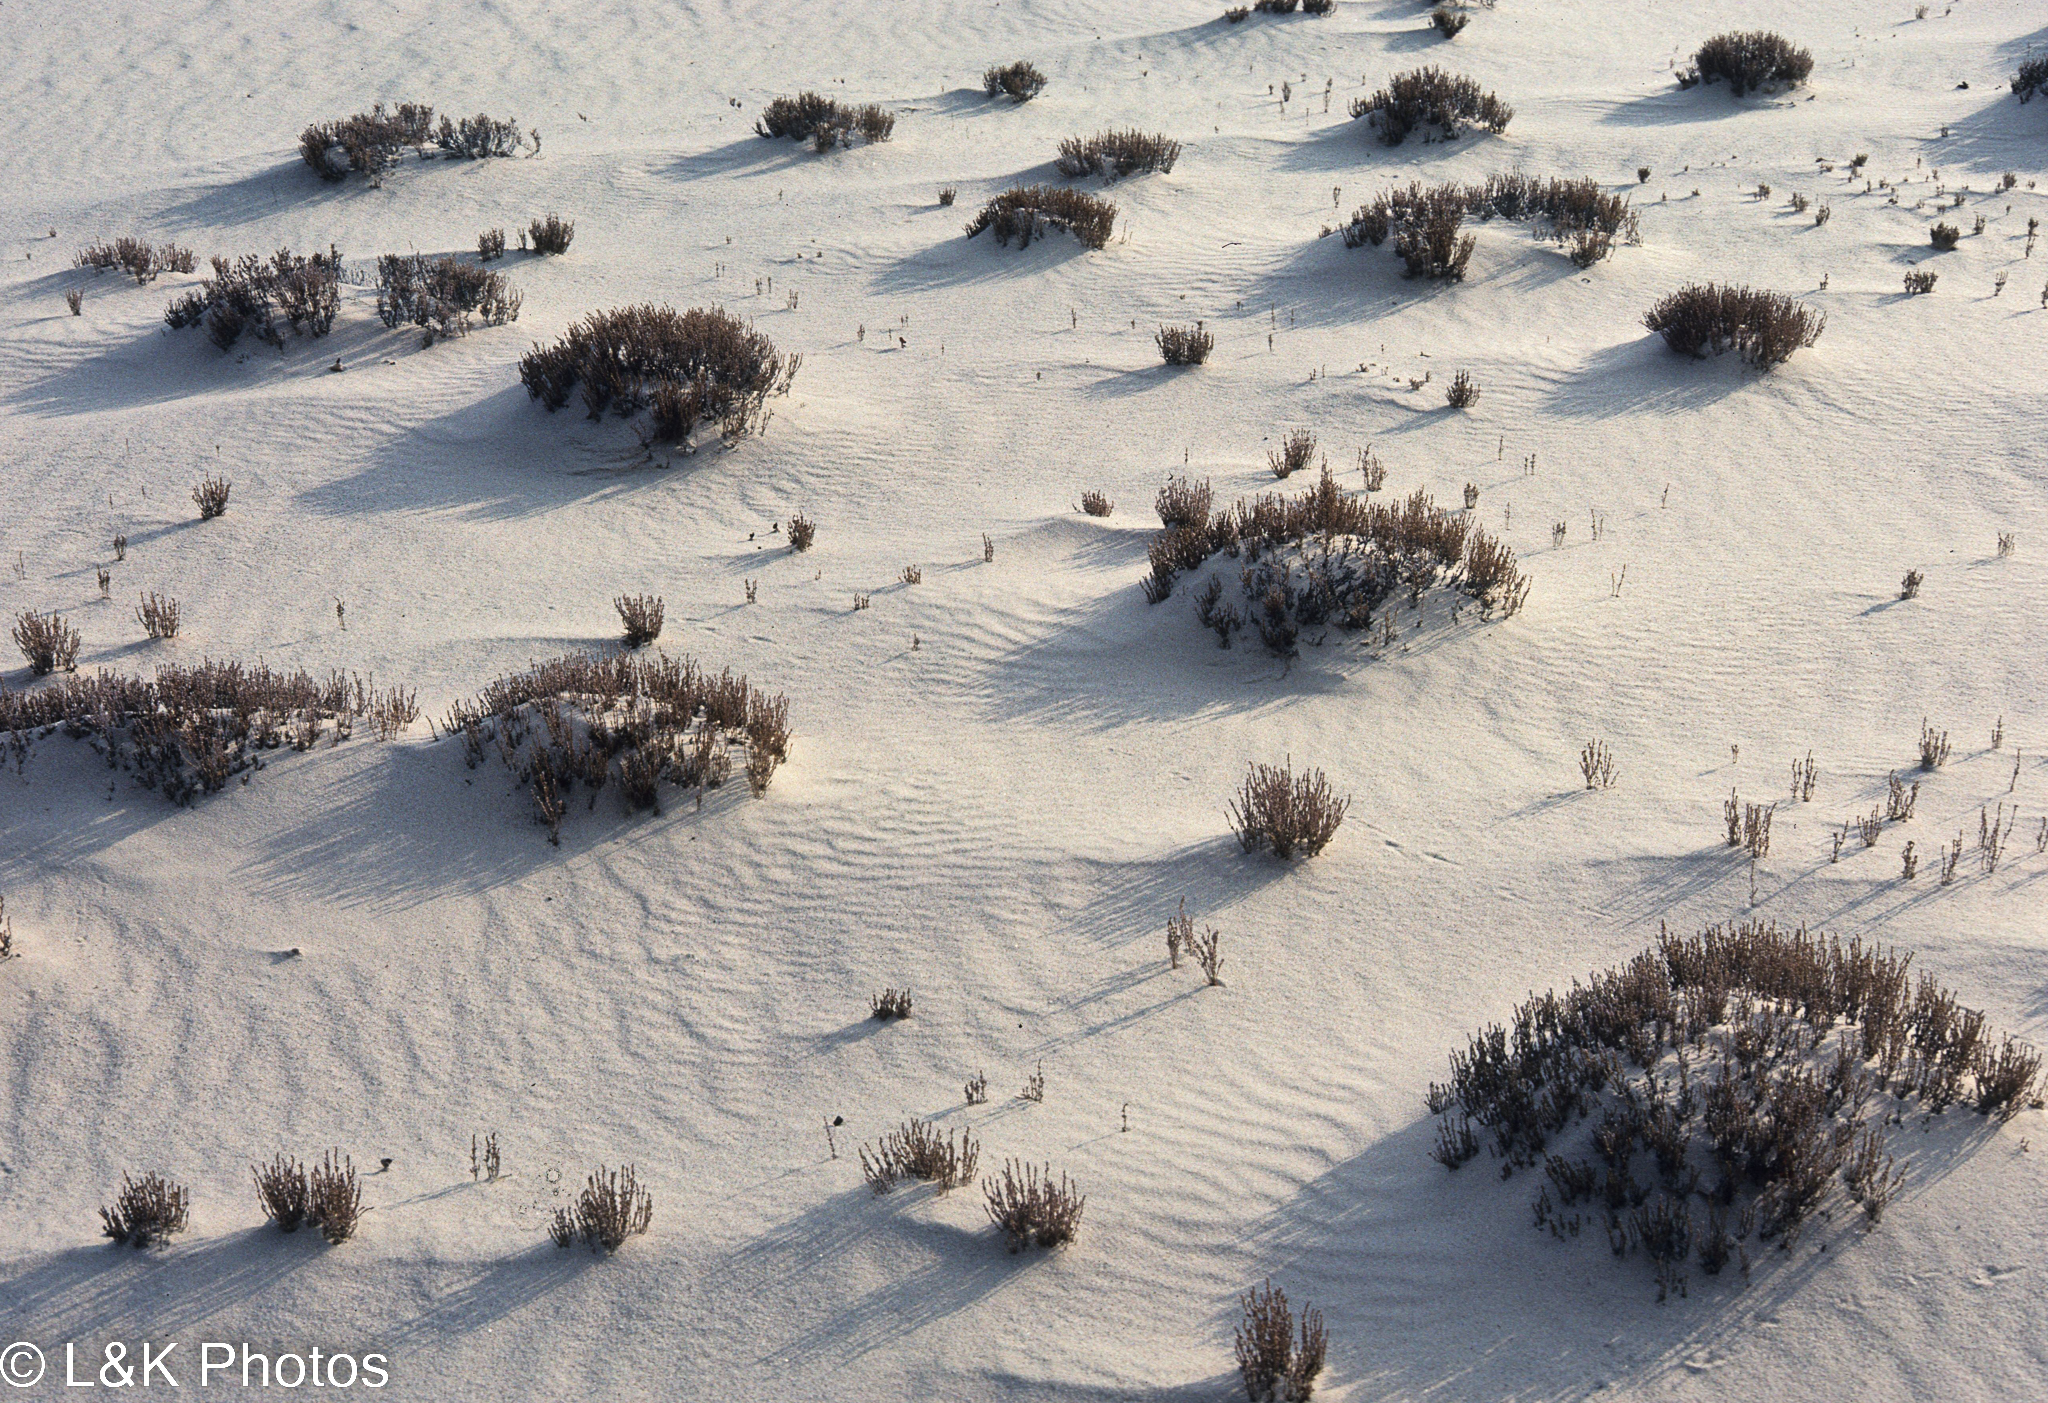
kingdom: Plantae
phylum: Tracheophyta
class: Magnoliopsida
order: Malvales
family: Cistaceae
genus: Hudsonia
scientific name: Hudsonia tomentosa
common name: Beach-heath
